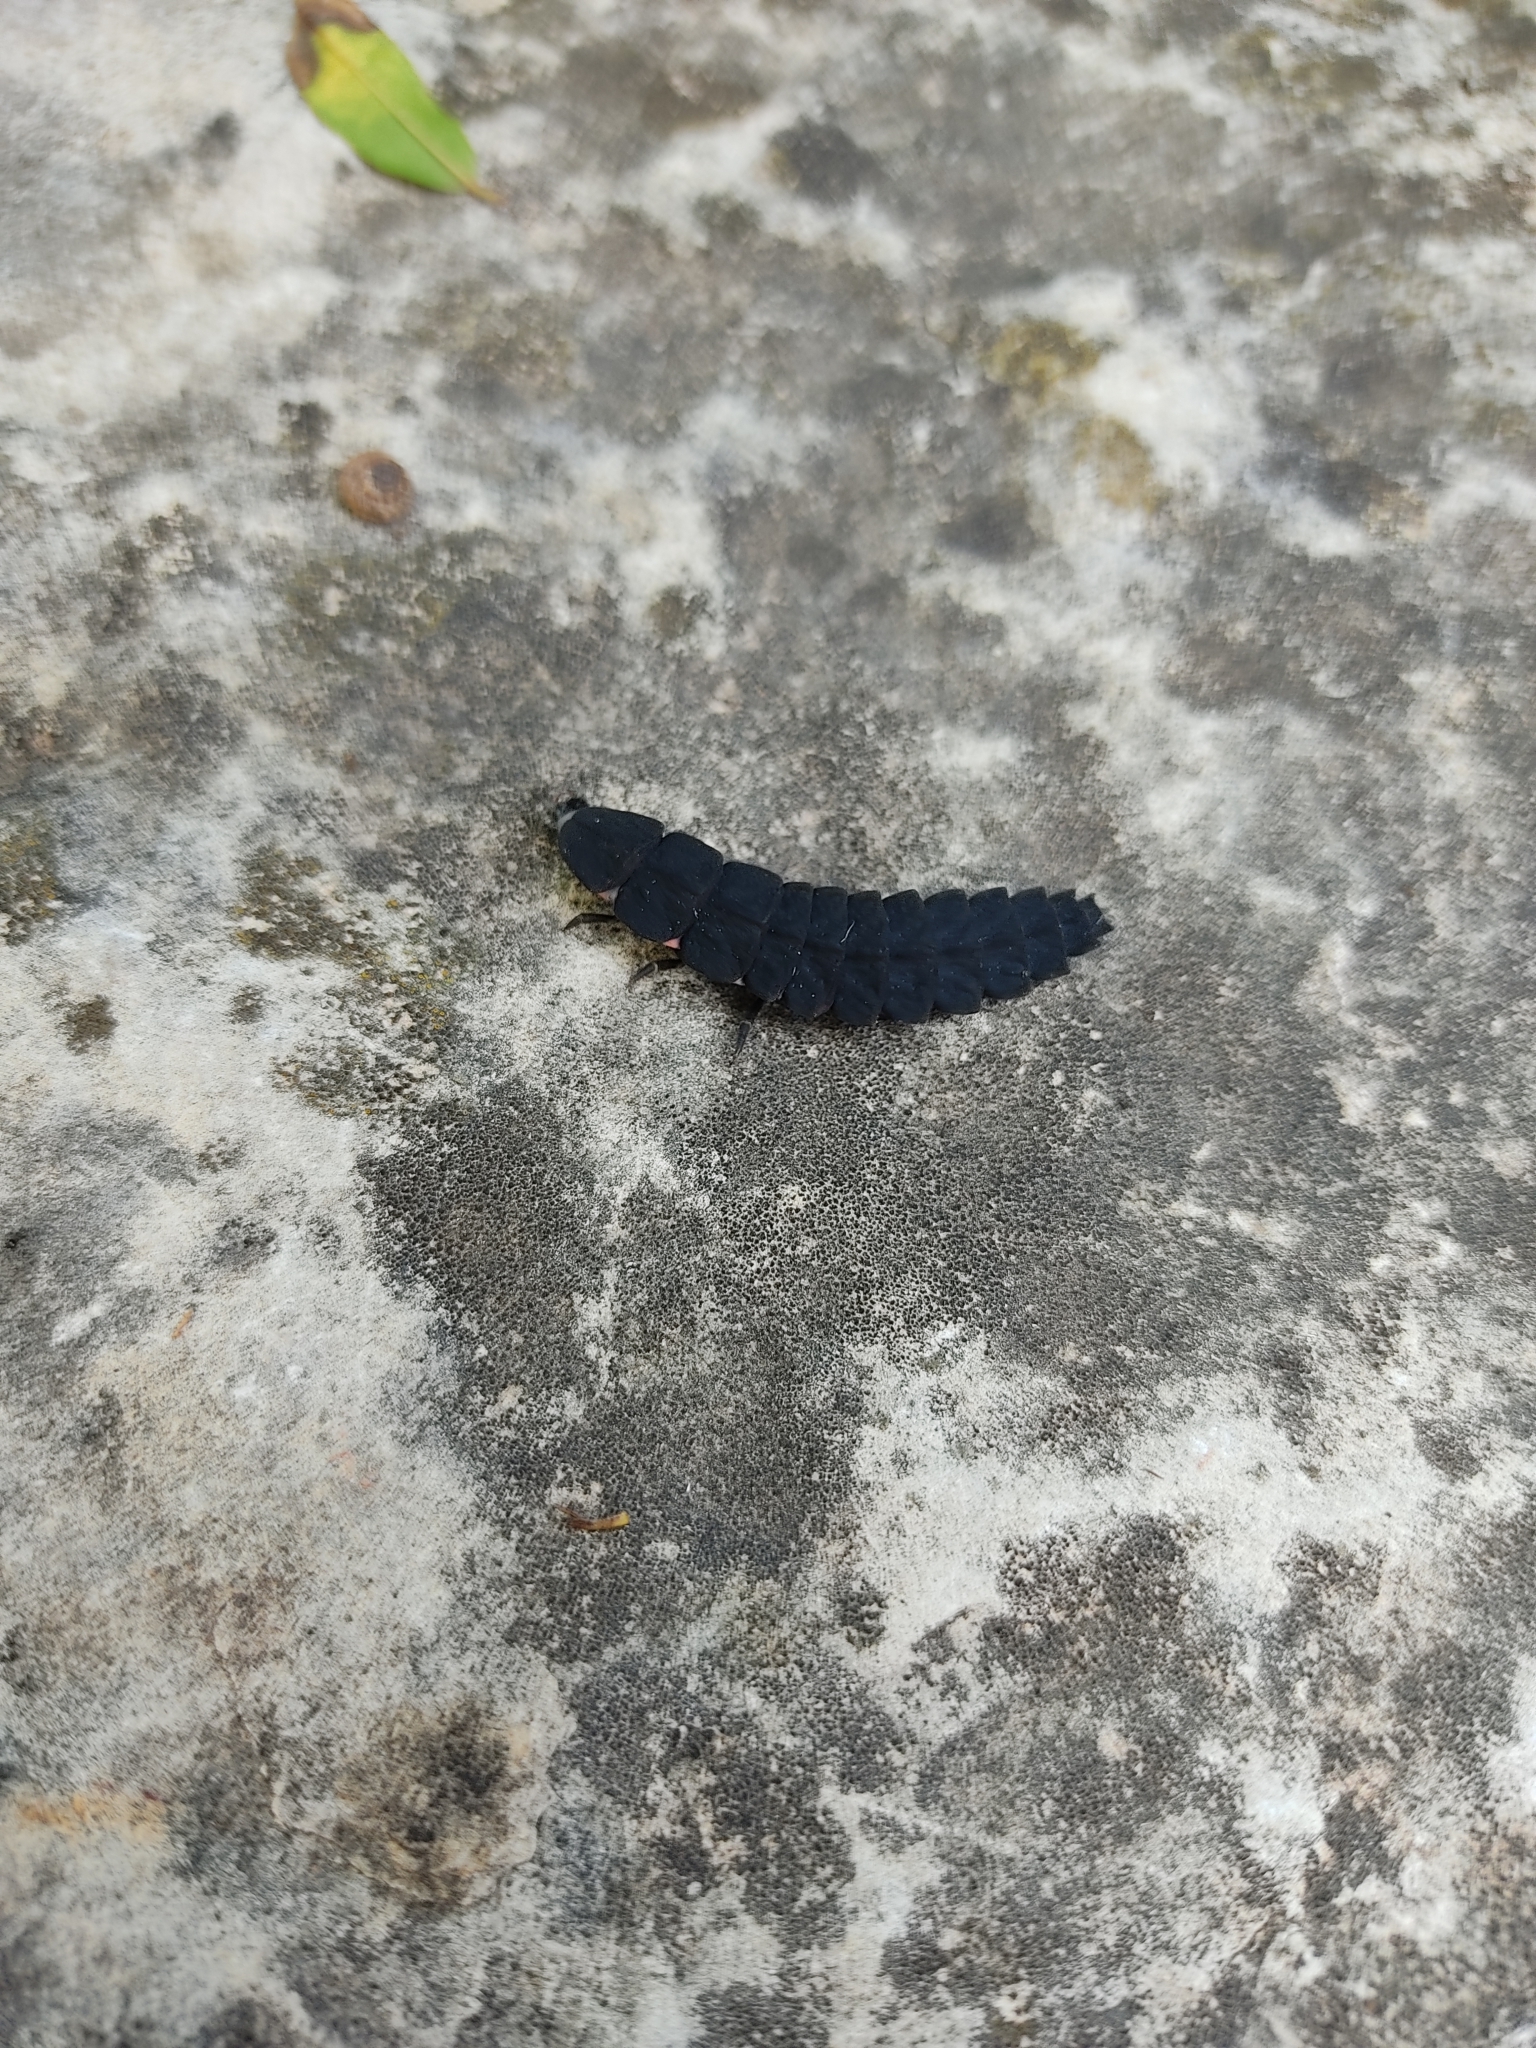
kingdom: Animalia
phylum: Arthropoda
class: Insecta
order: Coleoptera
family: Lampyridae
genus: Nyctophila
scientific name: Nyctophila reichii
